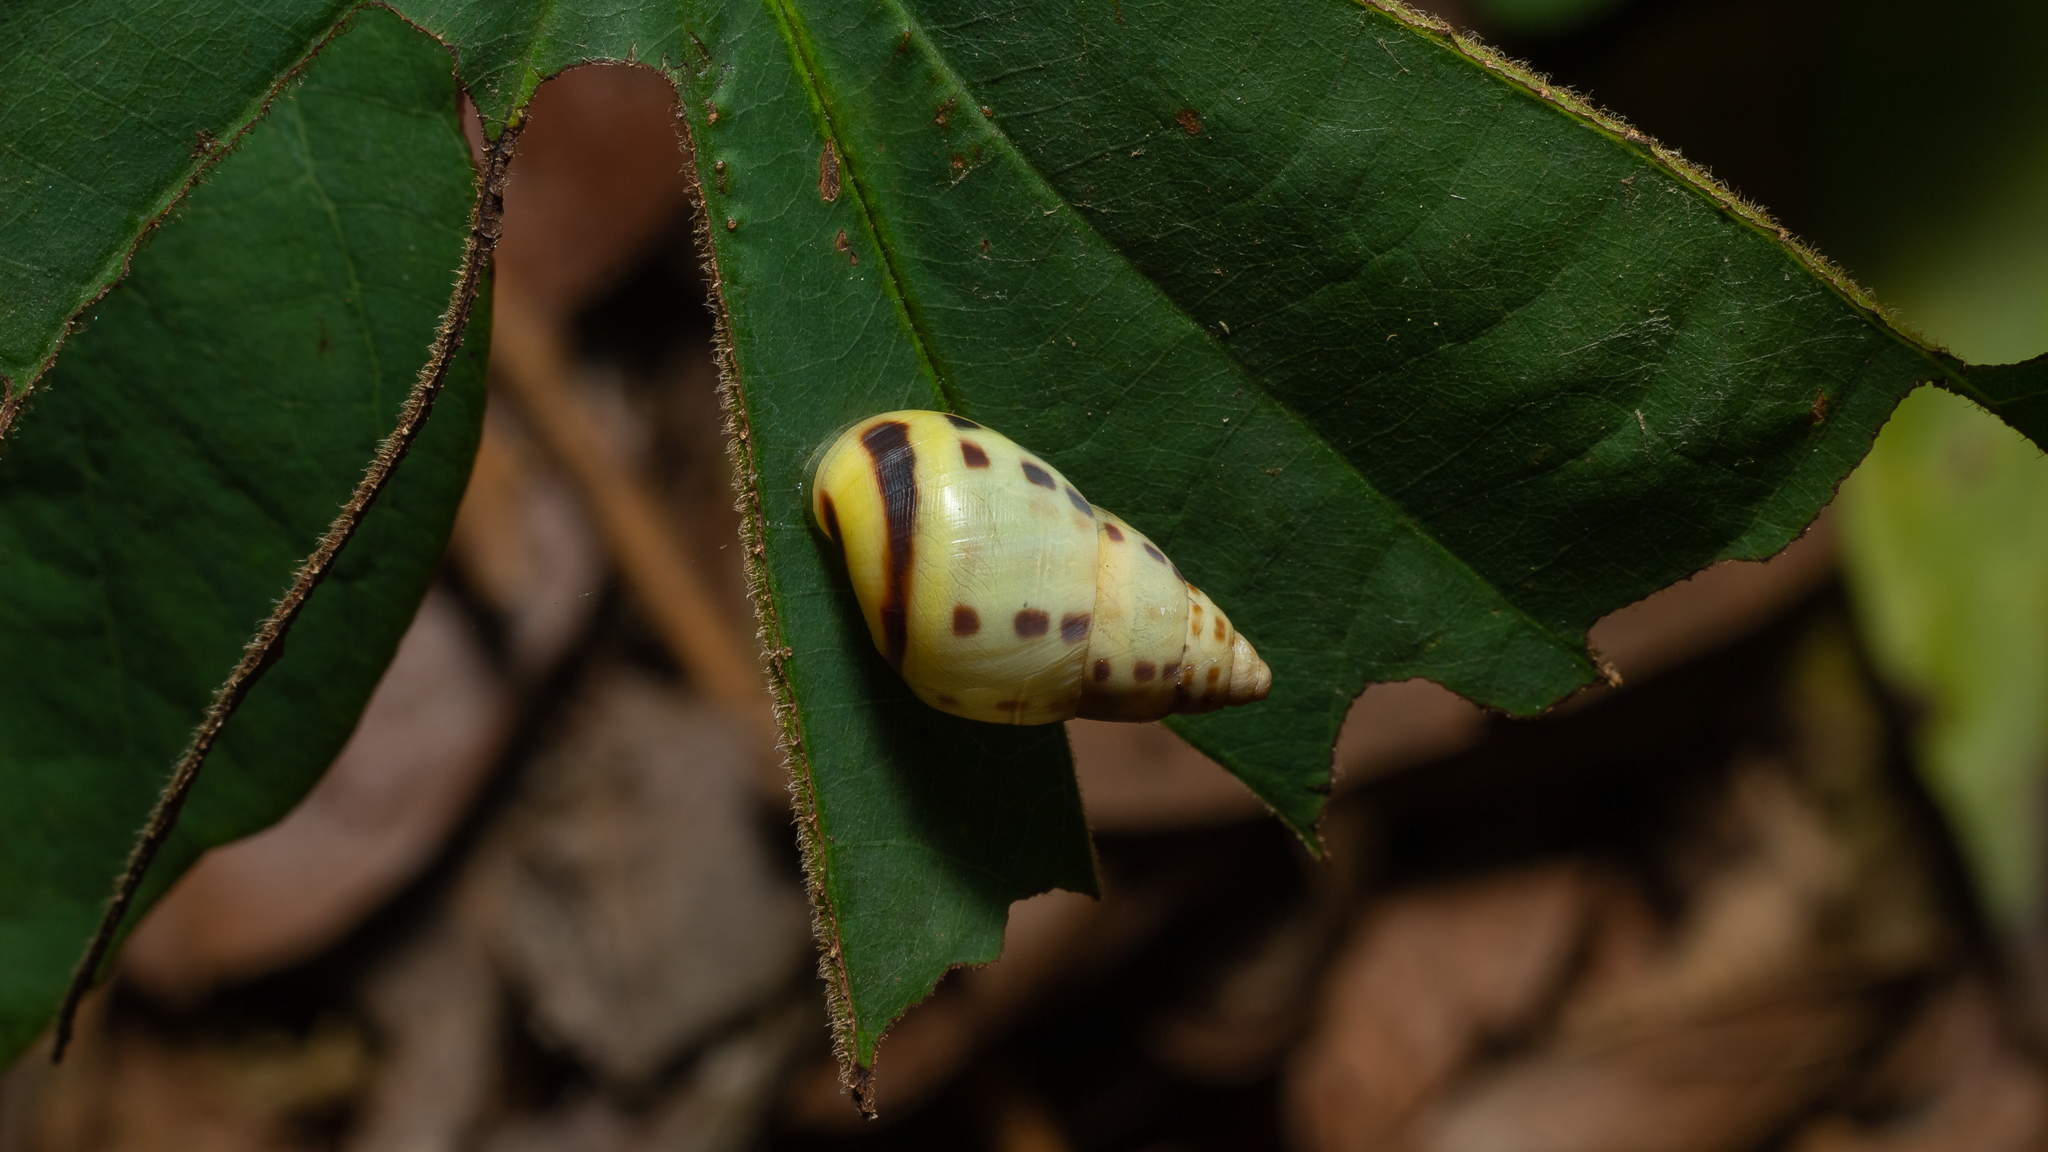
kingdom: Animalia
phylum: Mollusca
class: Gastropoda
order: Stylommatophora
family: Bulimulidae
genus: Drymaeus
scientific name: Drymaeus
